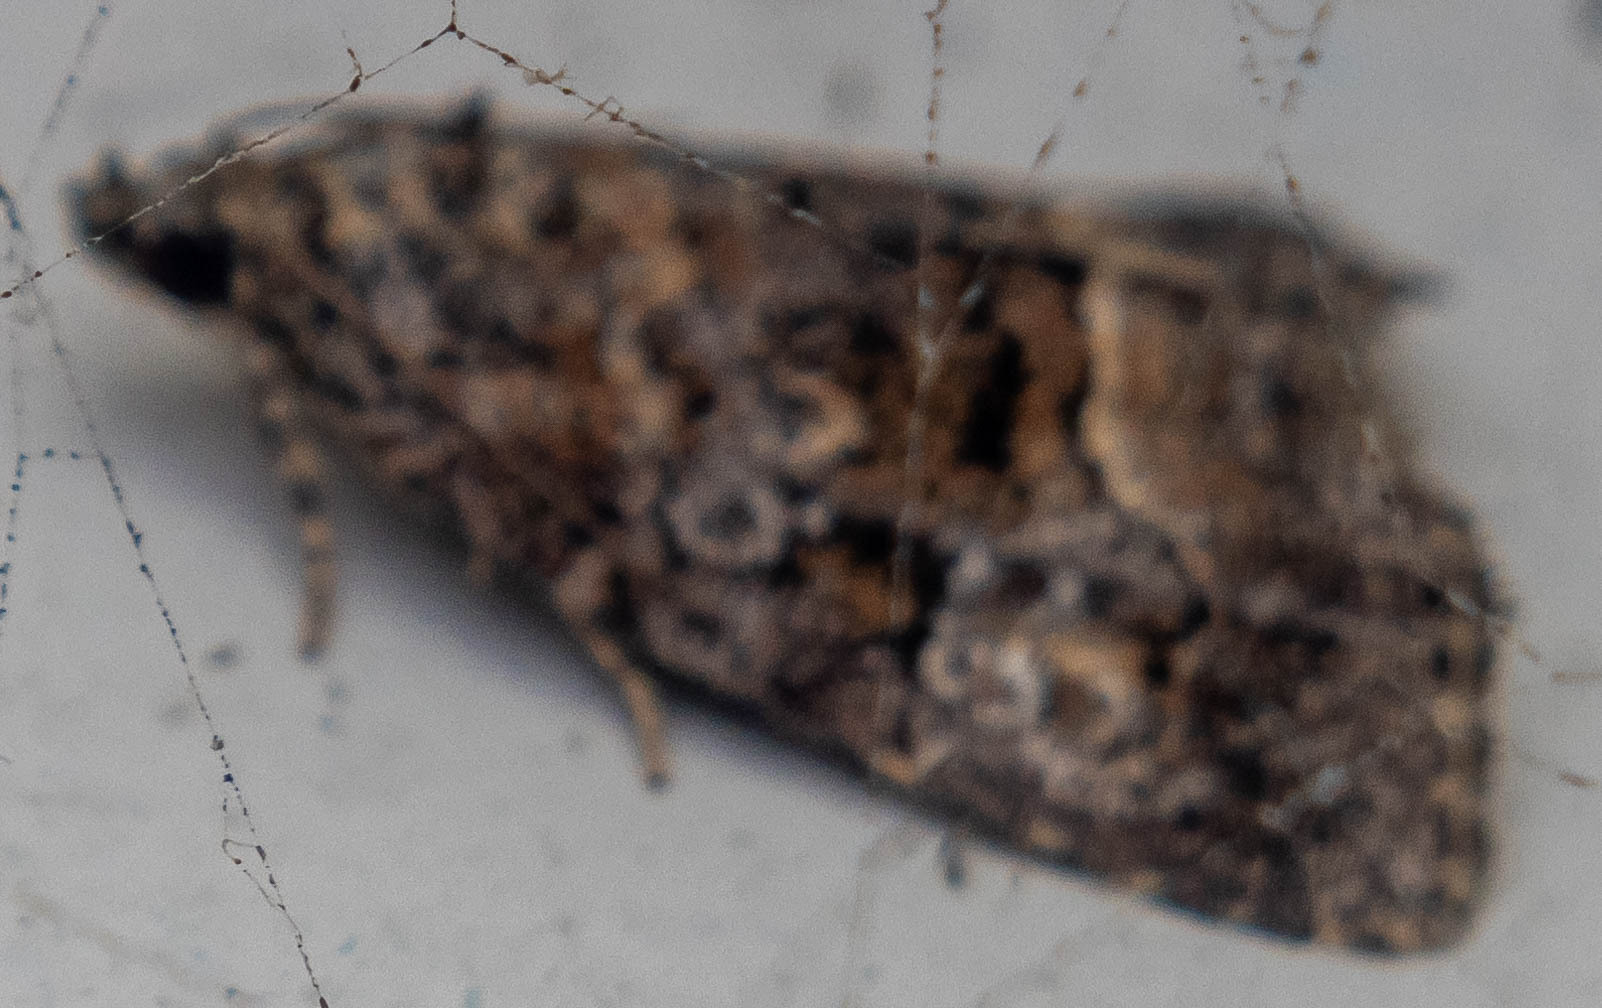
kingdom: Animalia
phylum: Arthropoda
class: Insecta
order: Lepidoptera
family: Noctuidae
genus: Deltote
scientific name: Deltote pygarga
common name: Marbled white spot
